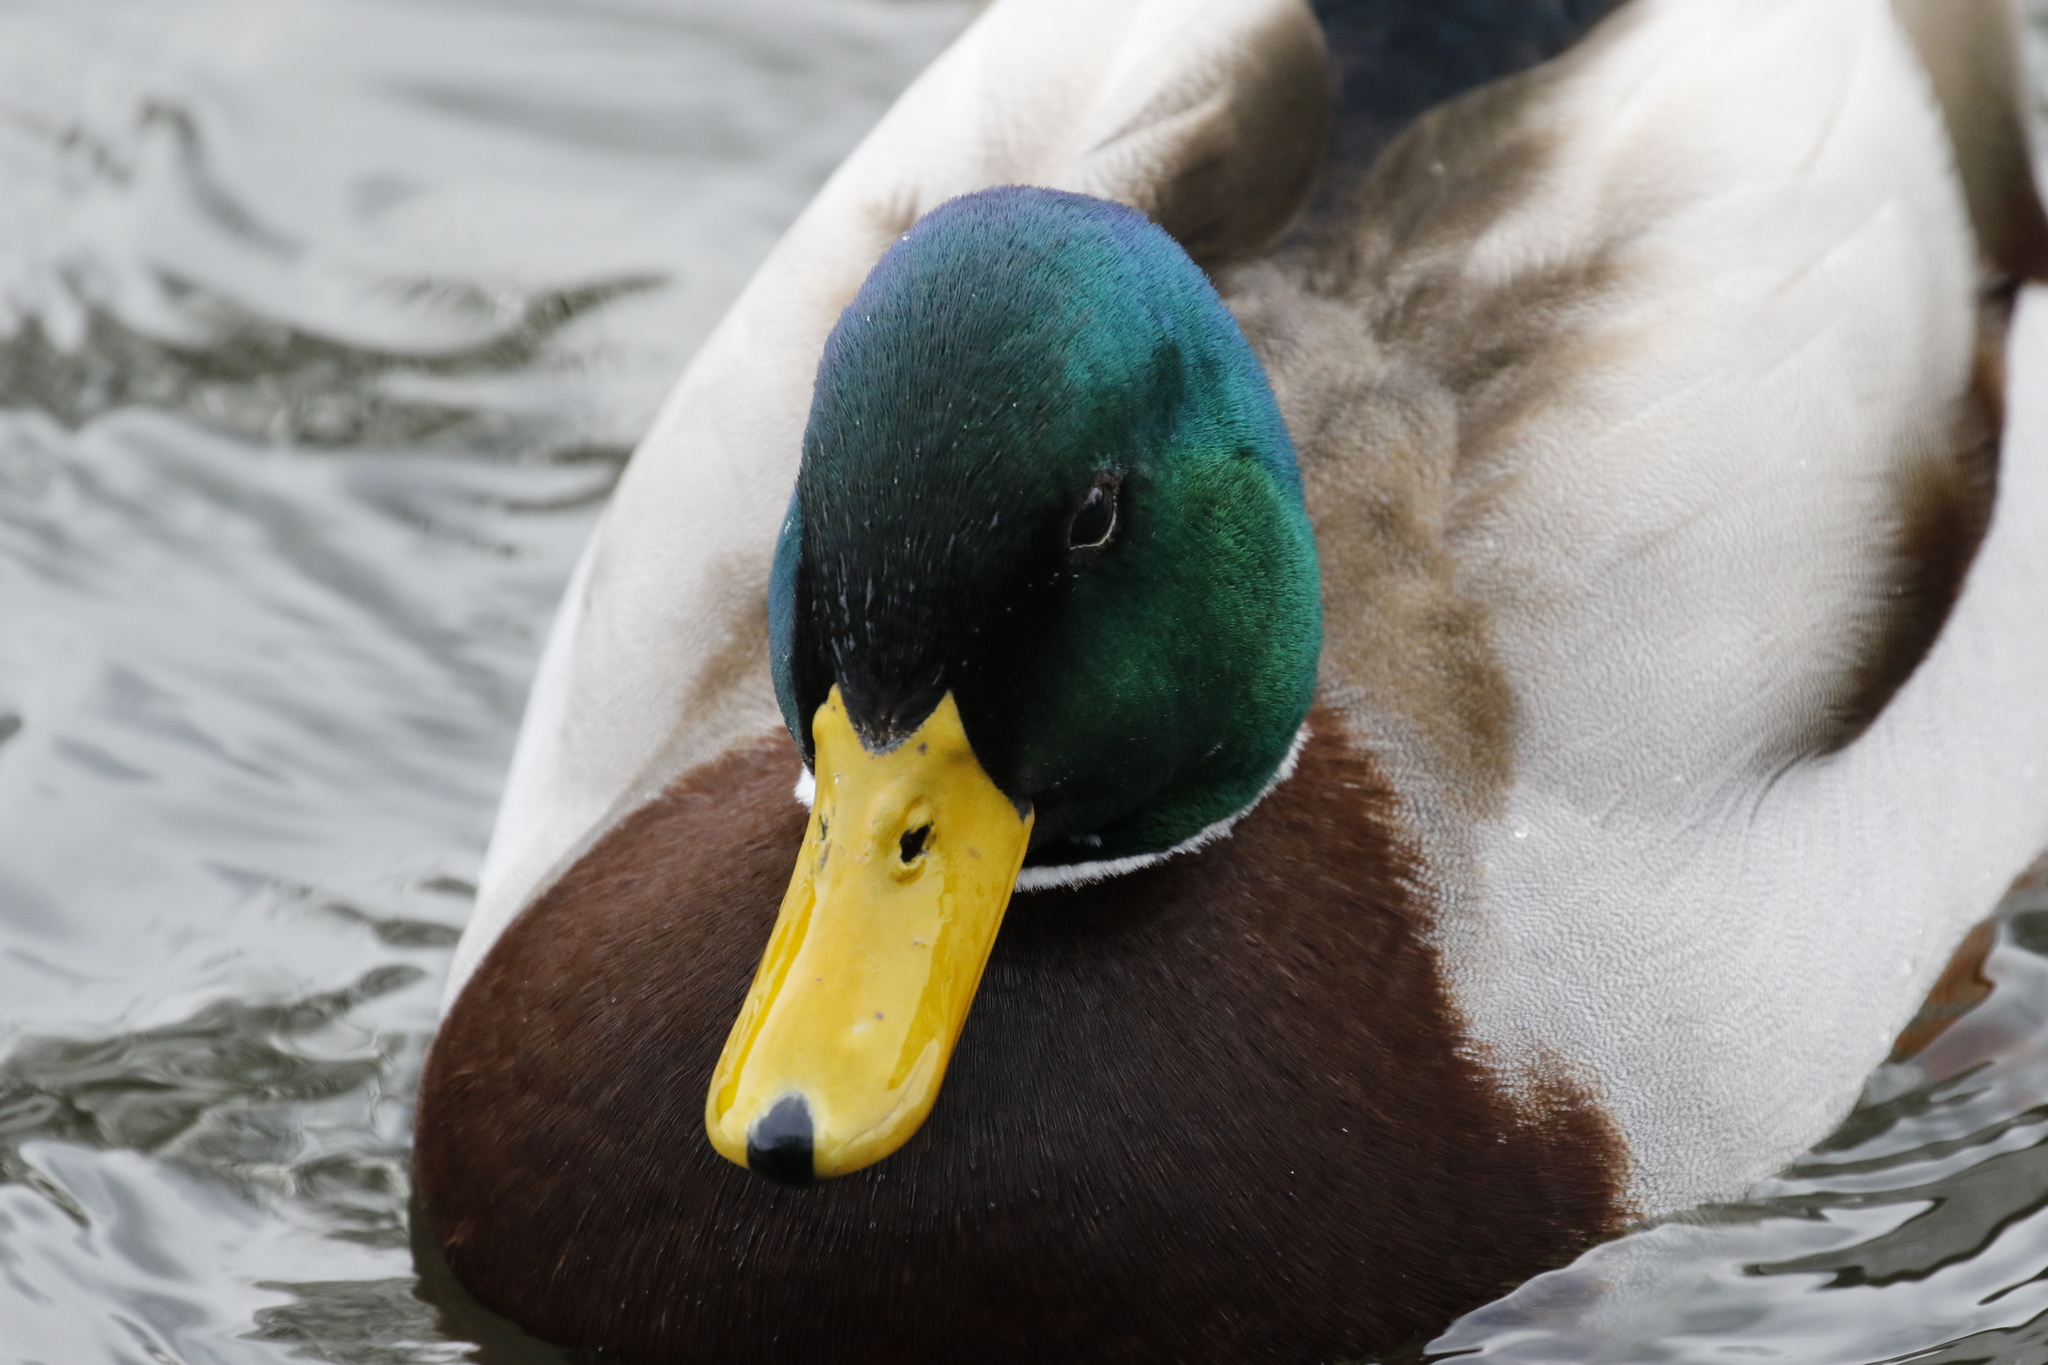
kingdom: Animalia
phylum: Chordata
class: Aves
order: Anseriformes
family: Anatidae
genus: Anas
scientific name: Anas platyrhynchos
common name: Mallard
